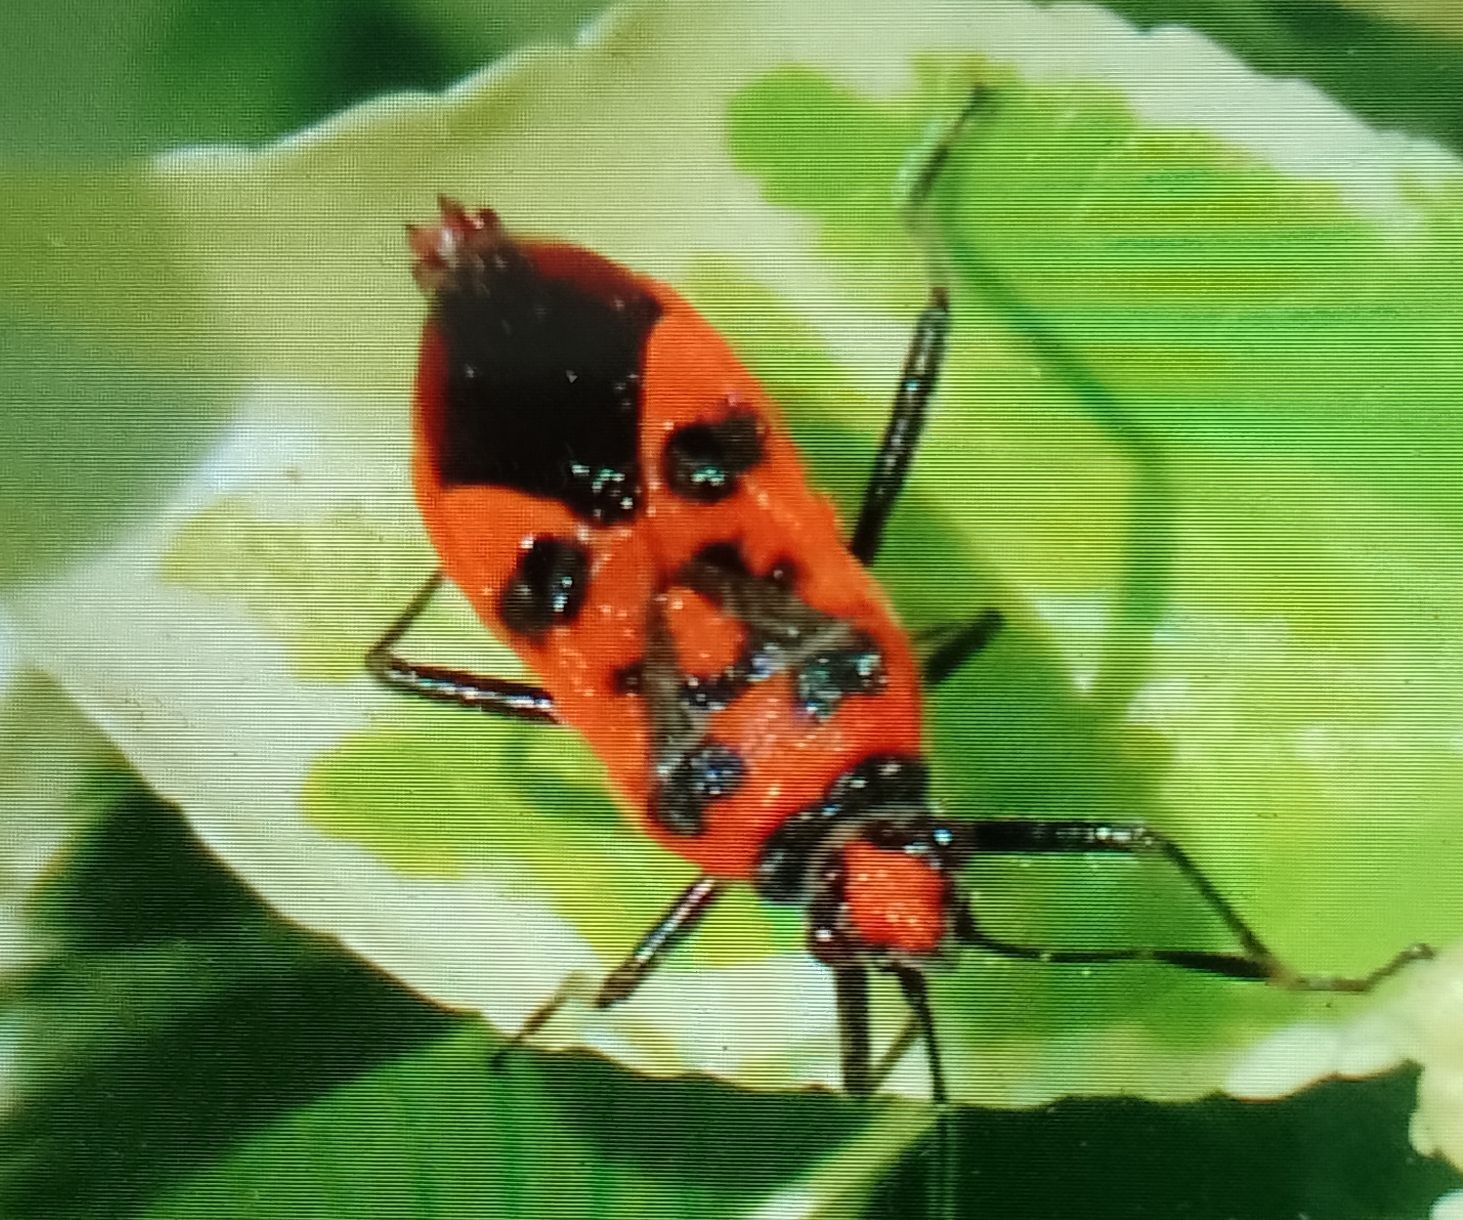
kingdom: Animalia
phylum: Arthropoda
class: Insecta
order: Hemiptera
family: Rhopalidae
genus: Corizus
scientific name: Corizus hyoscyami
